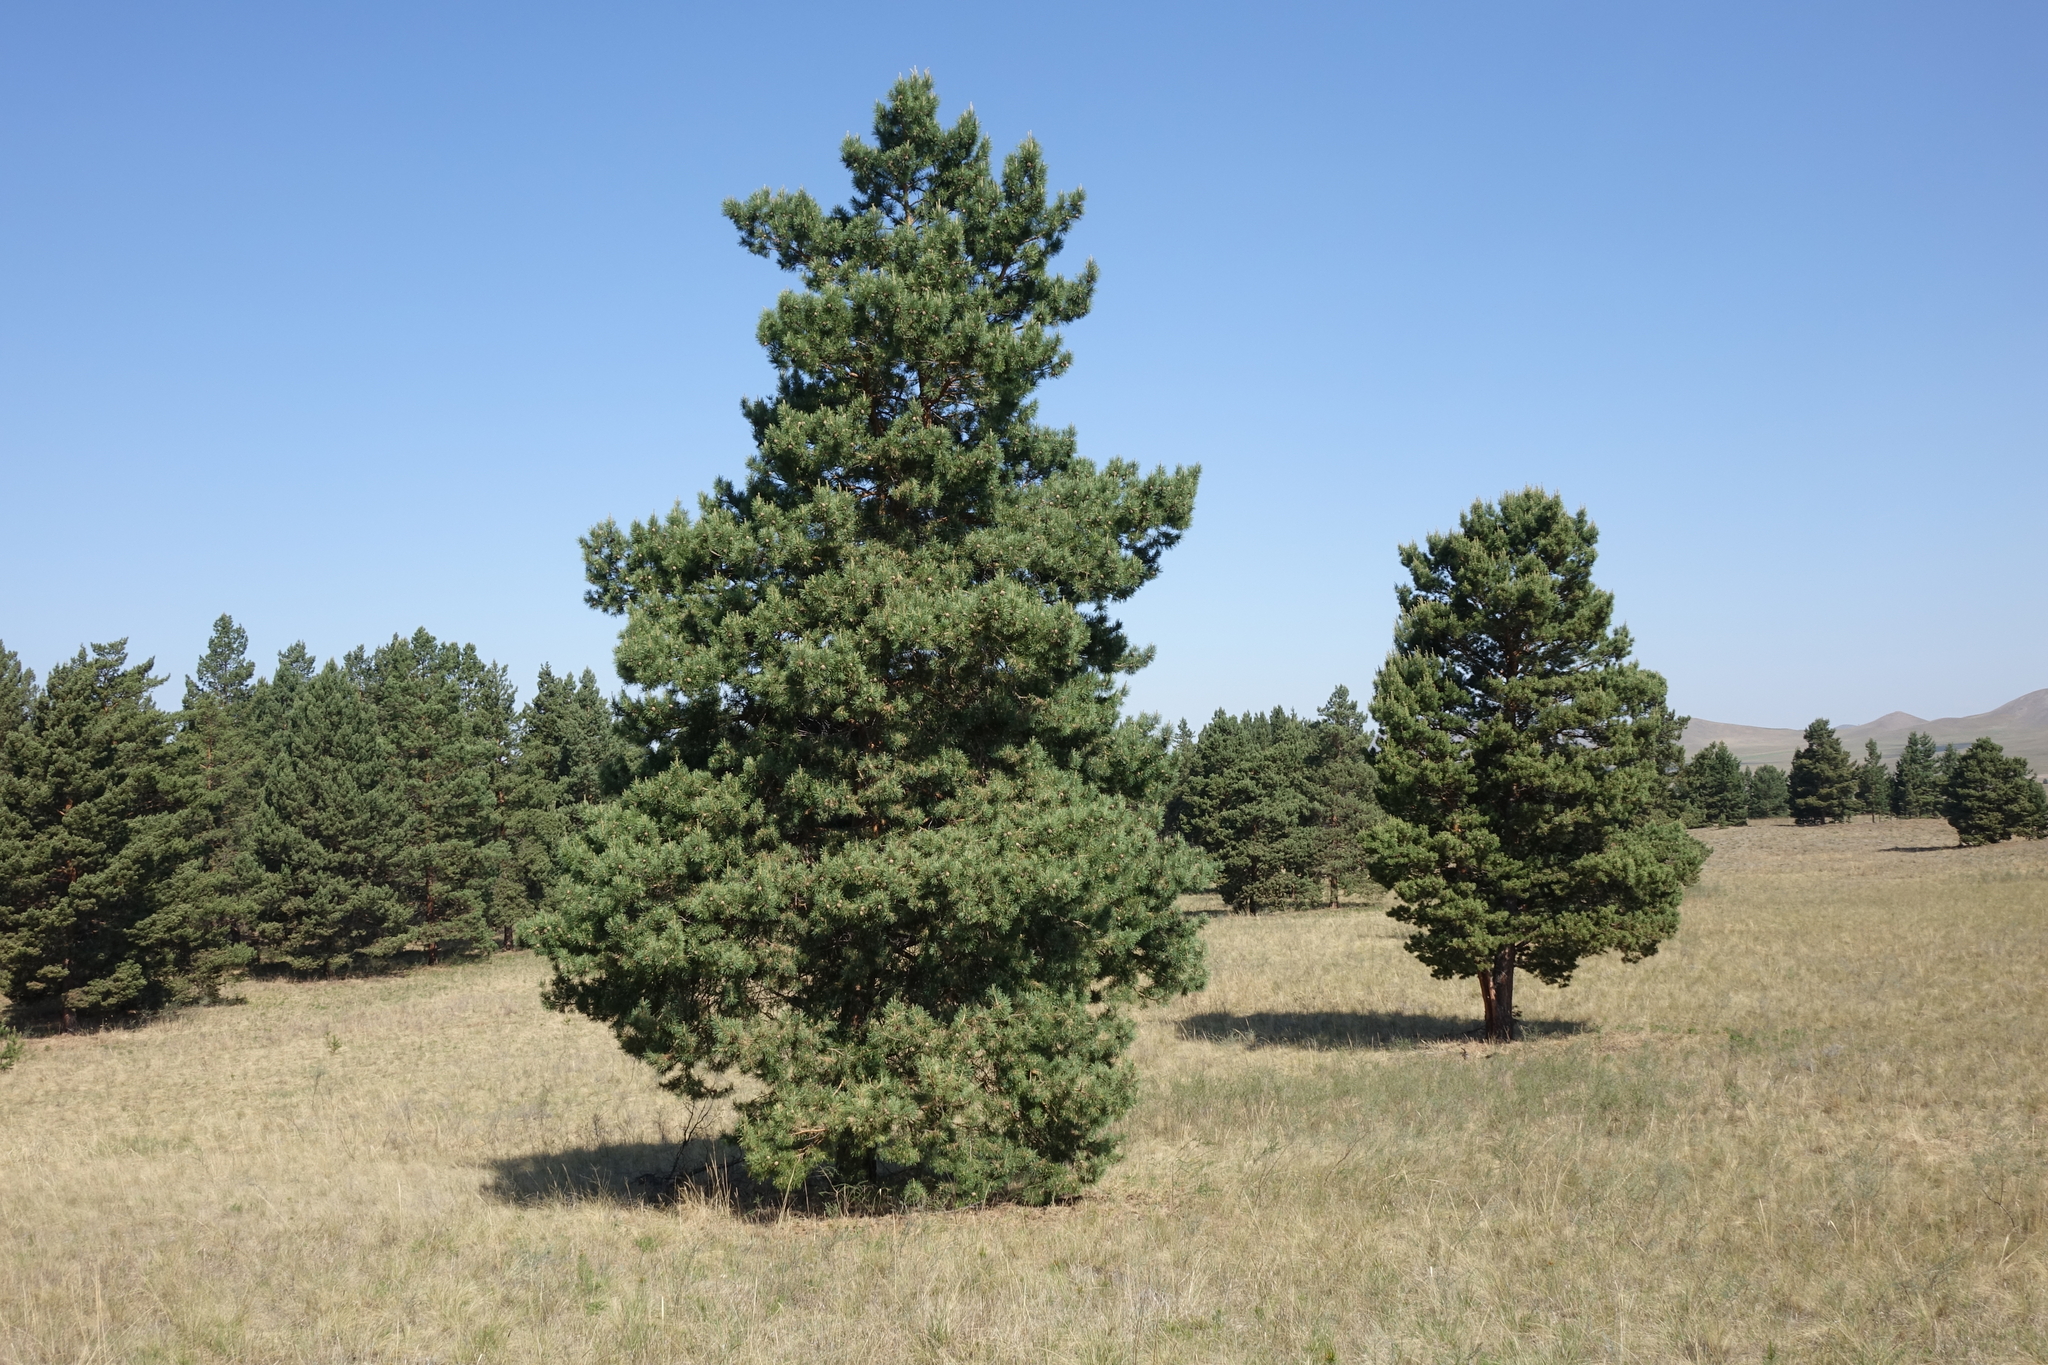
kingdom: Plantae
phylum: Tracheophyta
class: Pinopsida
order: Pinales
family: Pinaceae
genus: Pinus
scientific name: Pinus sylvestris
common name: Scots pine
